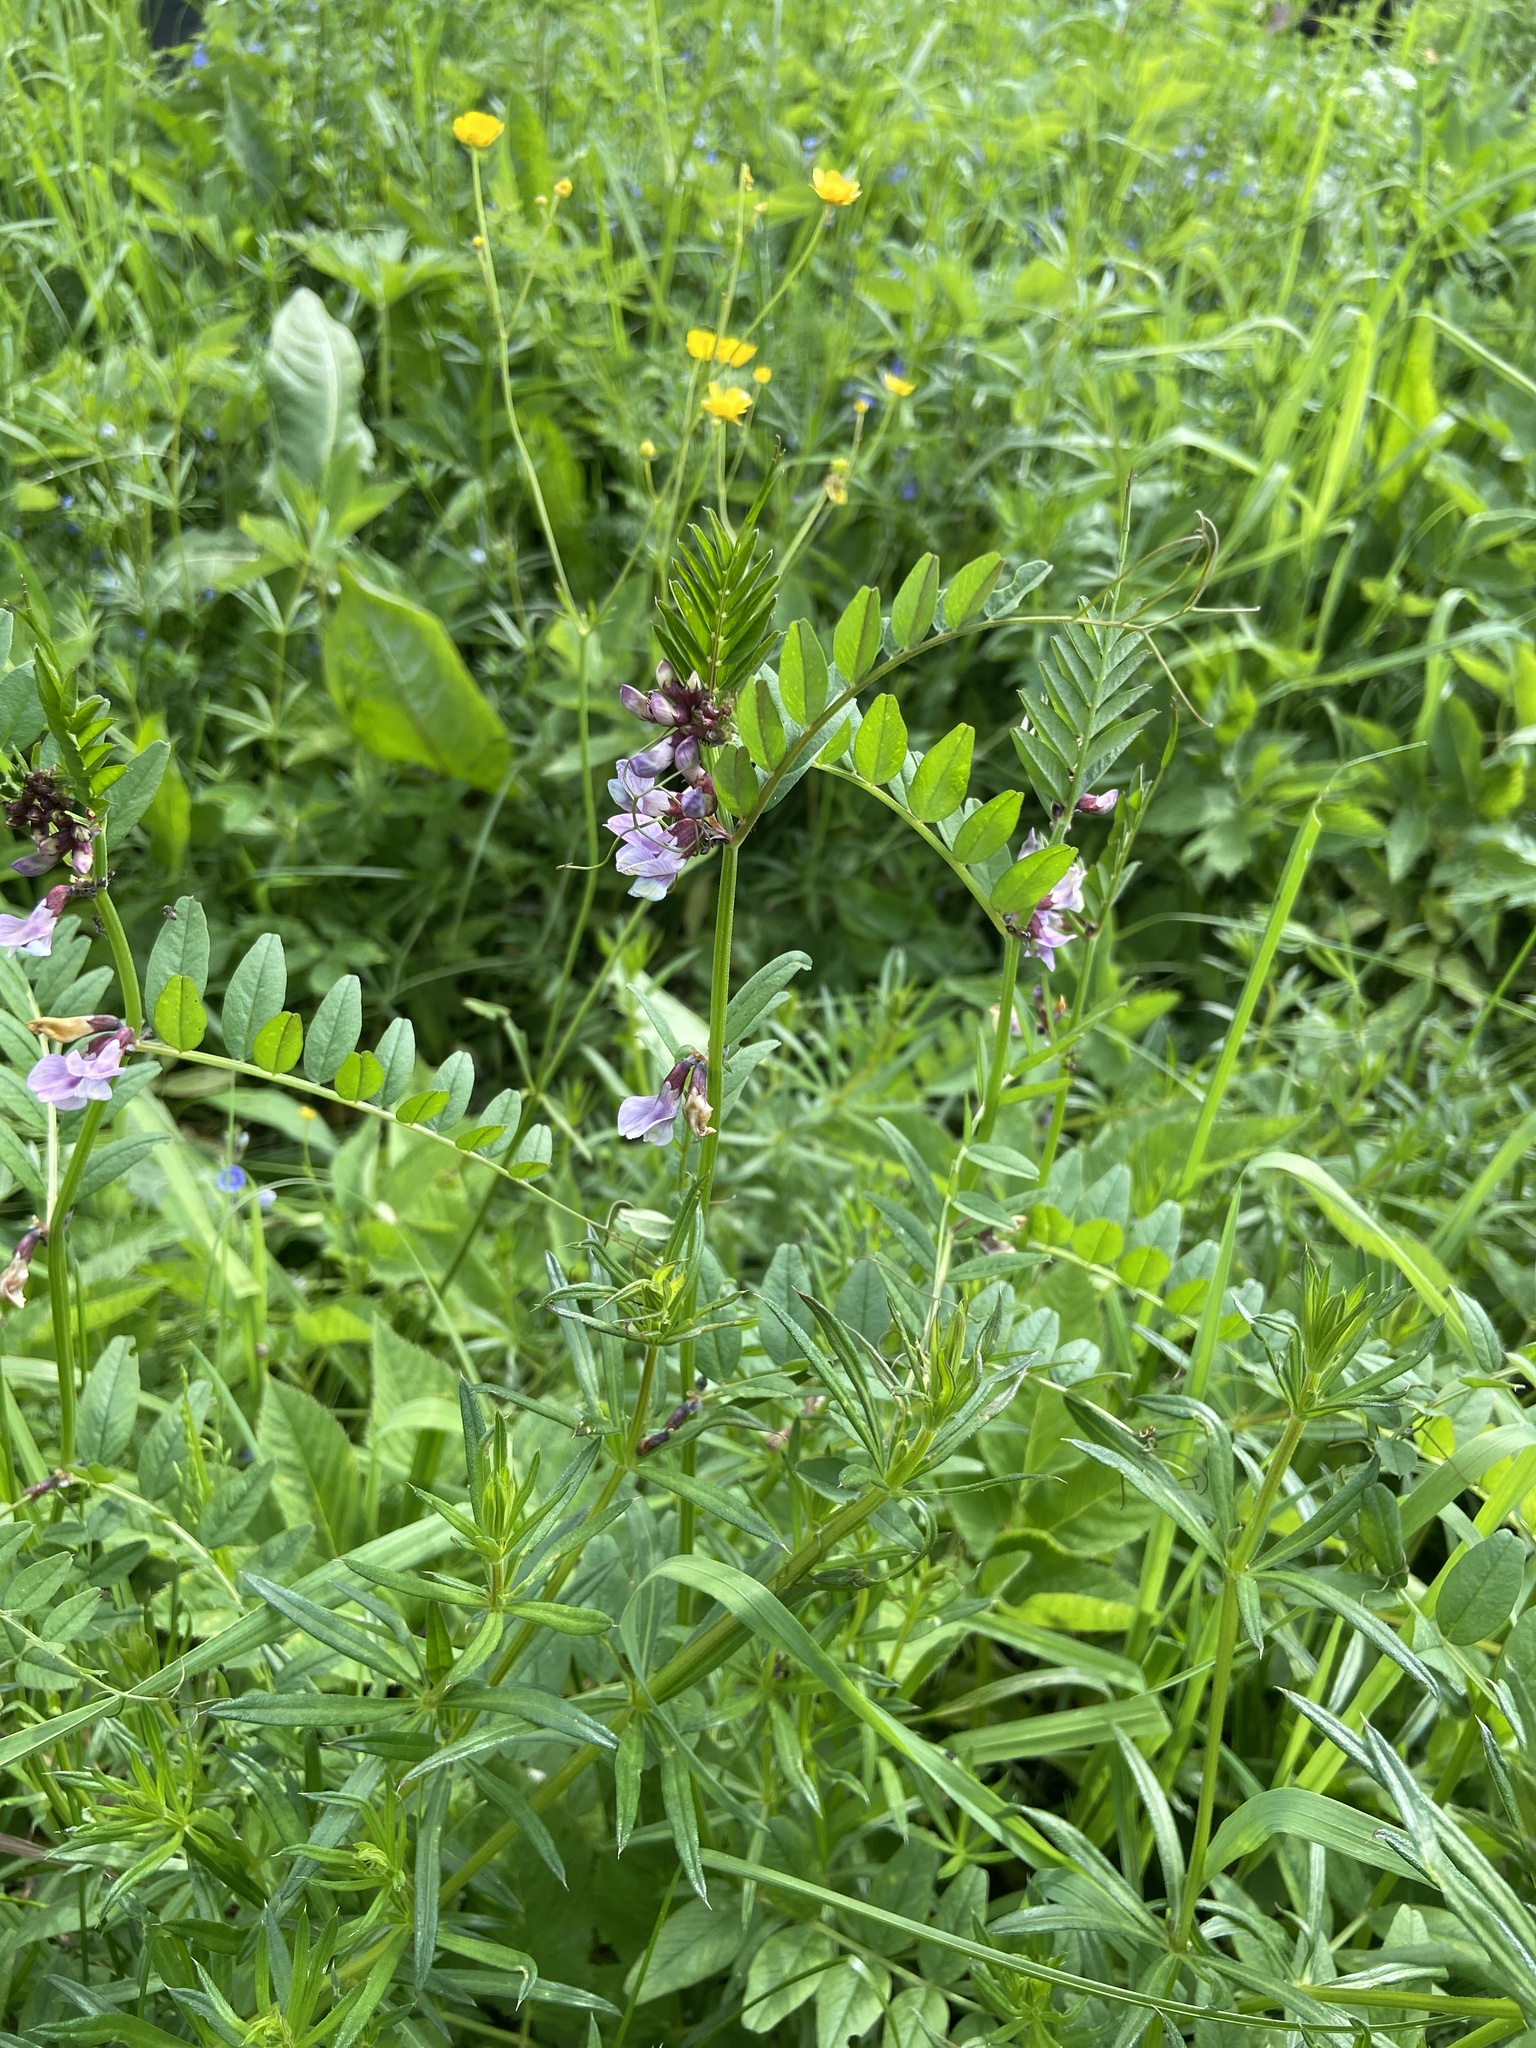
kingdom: Plantae
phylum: Tracheophyta
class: Magnoliopsida
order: Fabales
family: Fabaceae
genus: Vicia
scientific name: Vicia sepium
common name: Bush vetch
